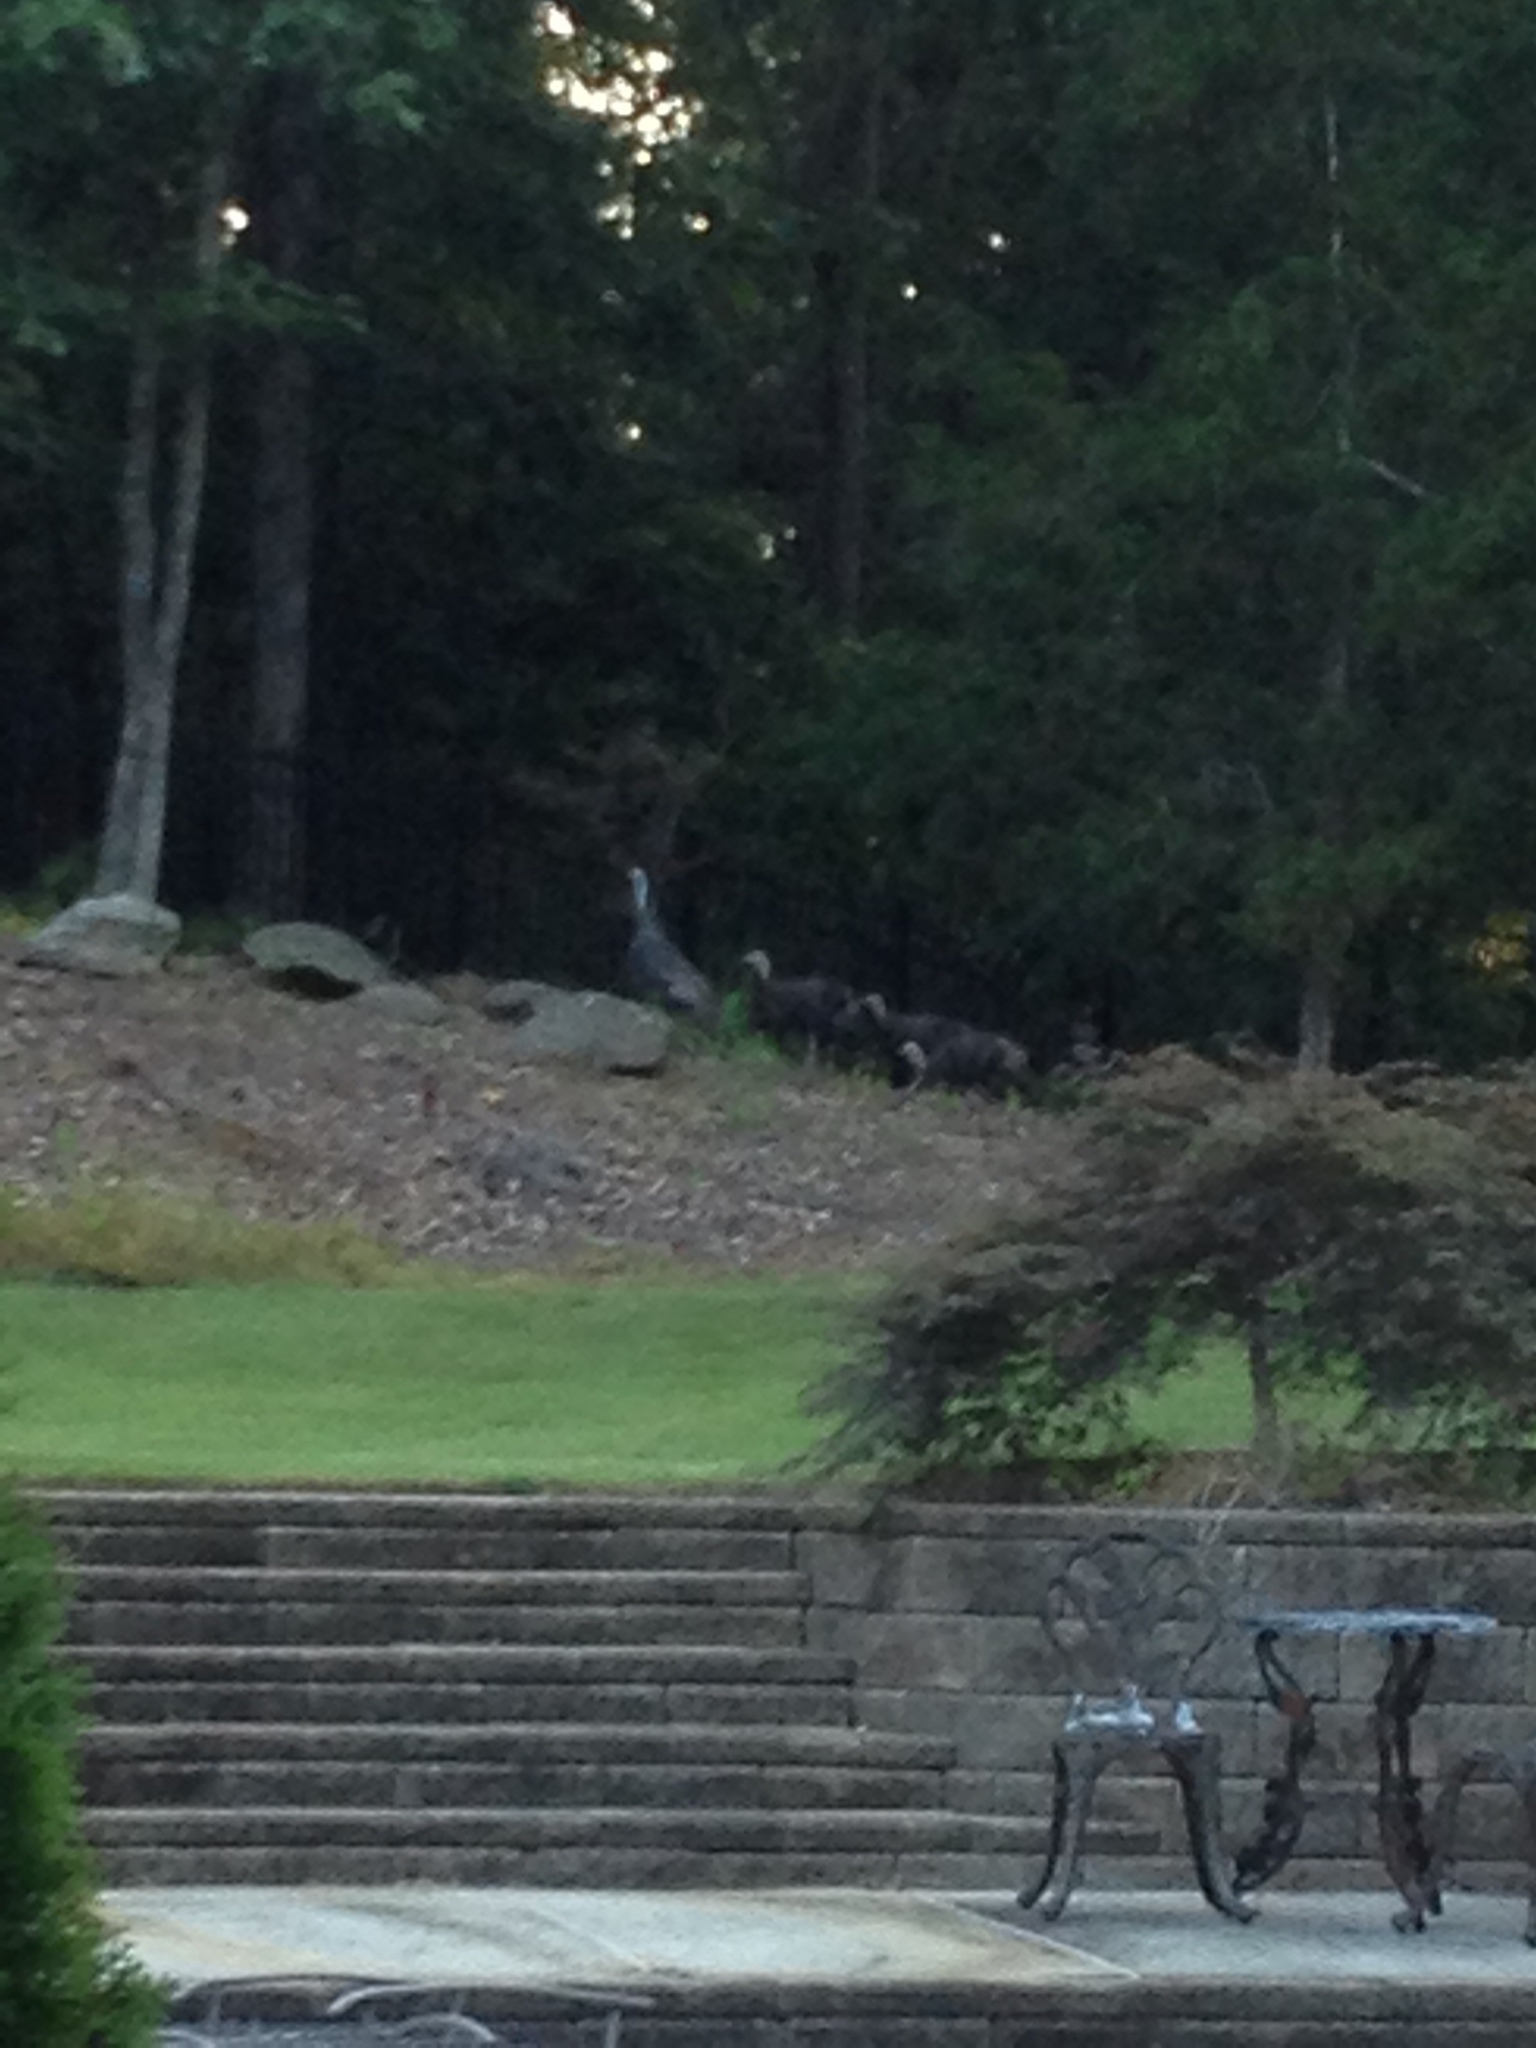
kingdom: Animalia
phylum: Chordata
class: Aves
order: Galliformes
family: Phasianidae
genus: Meleagris
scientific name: Meleagris gallopavo
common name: Wild turkey
